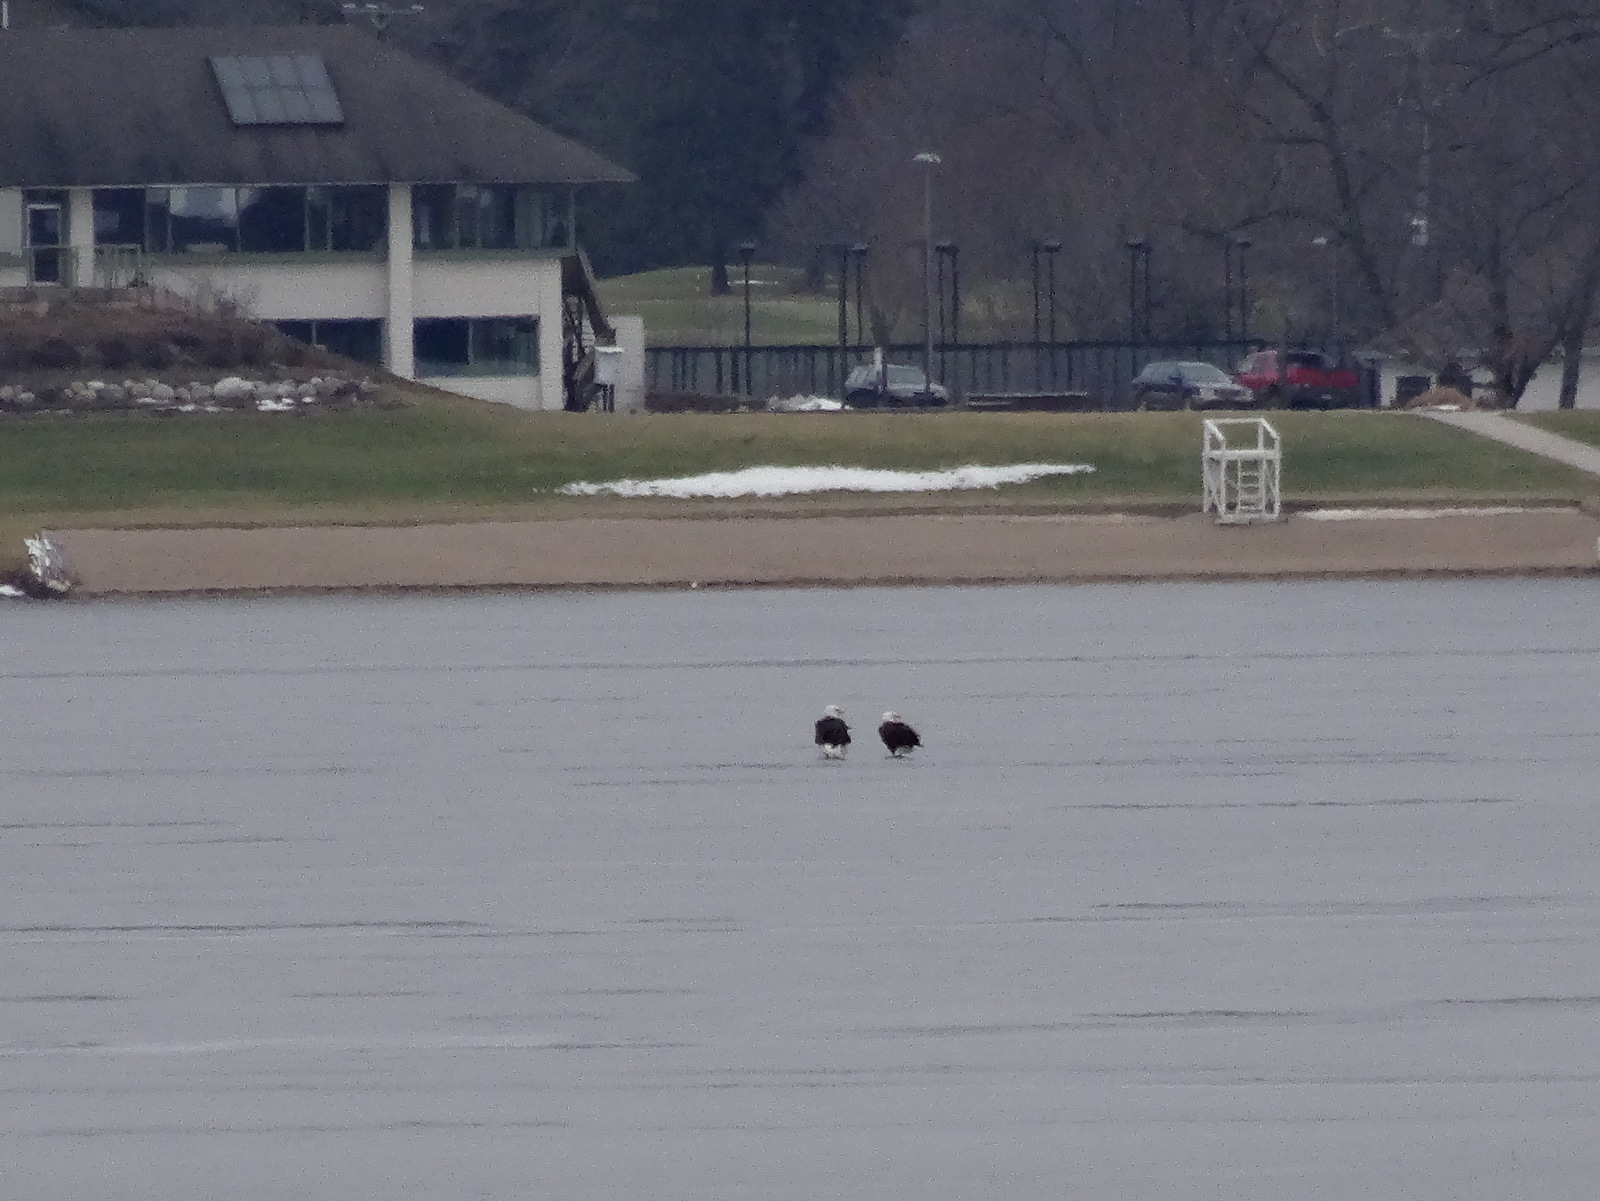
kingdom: Animalia
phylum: Chordata
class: Aves
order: Accipitriformes
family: Accipitridae
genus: Haliaeetus
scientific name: Haliaeetus leucocephalus
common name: Bald eagle
